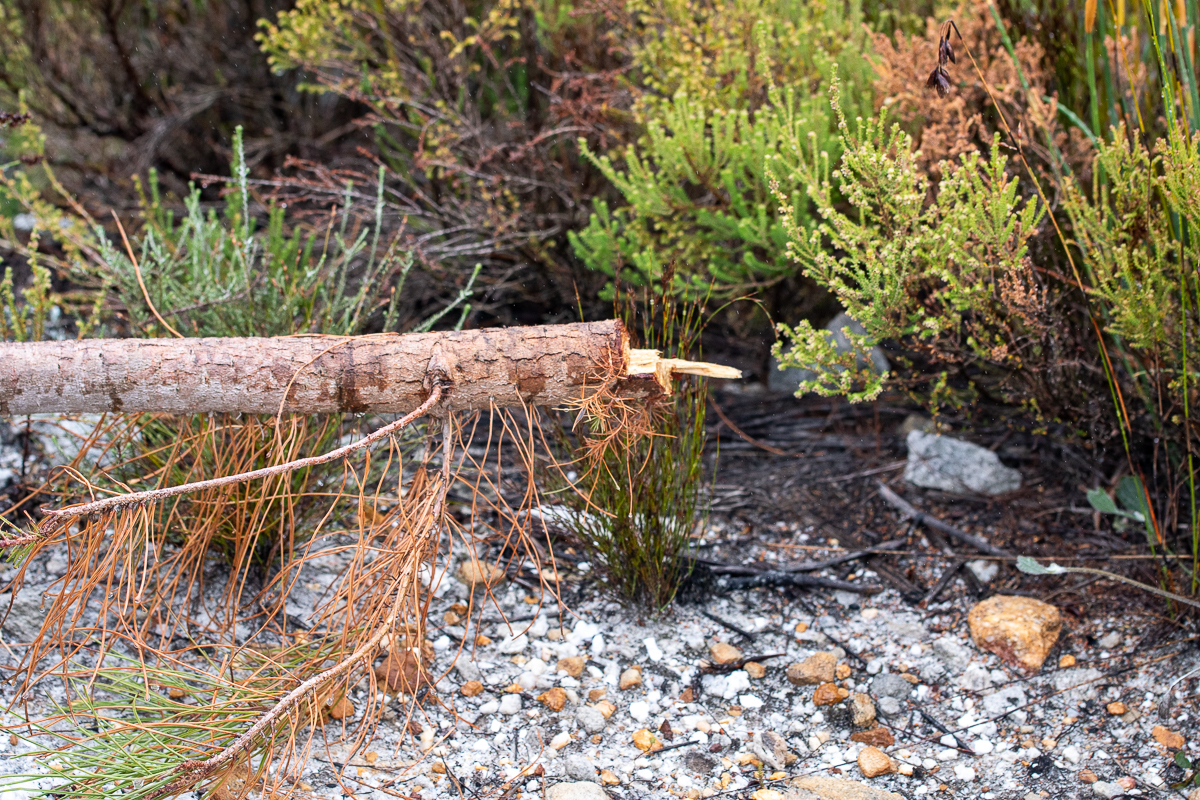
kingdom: Plantae
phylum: Tracheophyta
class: Pinopsida
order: Pinales
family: Pinaceae
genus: Pinus
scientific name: Pinus pinaster
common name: Maritime pine
